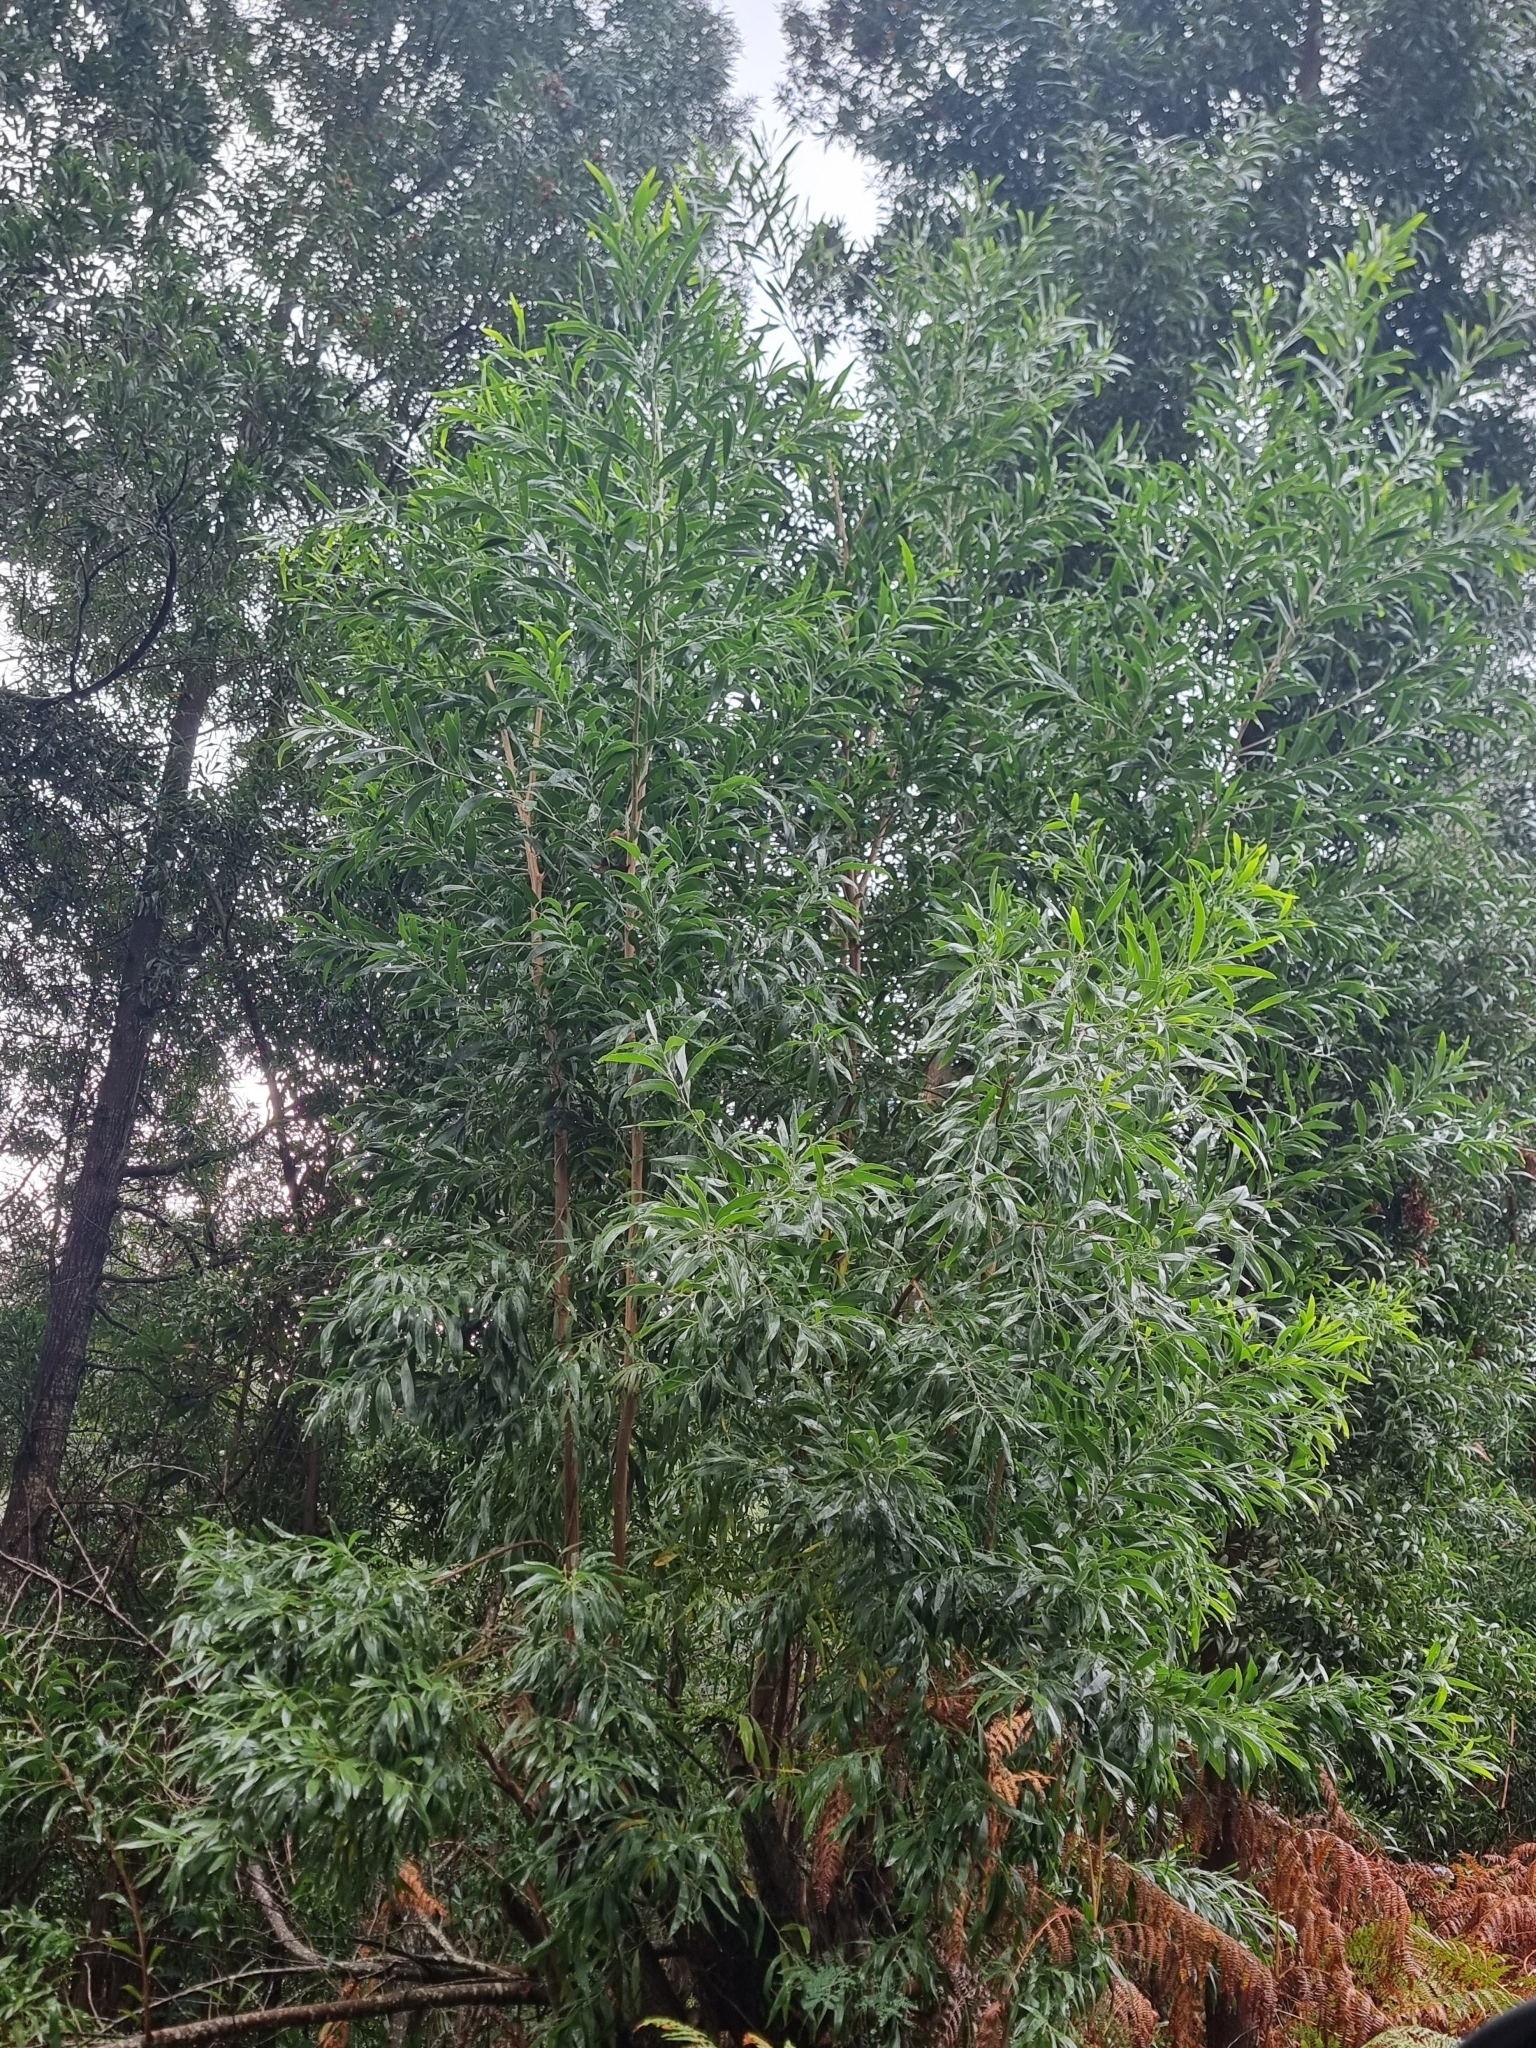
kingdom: Plantae
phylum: Tracheophyta
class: Magnoliopsida
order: Fabales
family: Fabaceae
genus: Acacia
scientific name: Acacia melanoxylon
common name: Blackwood
